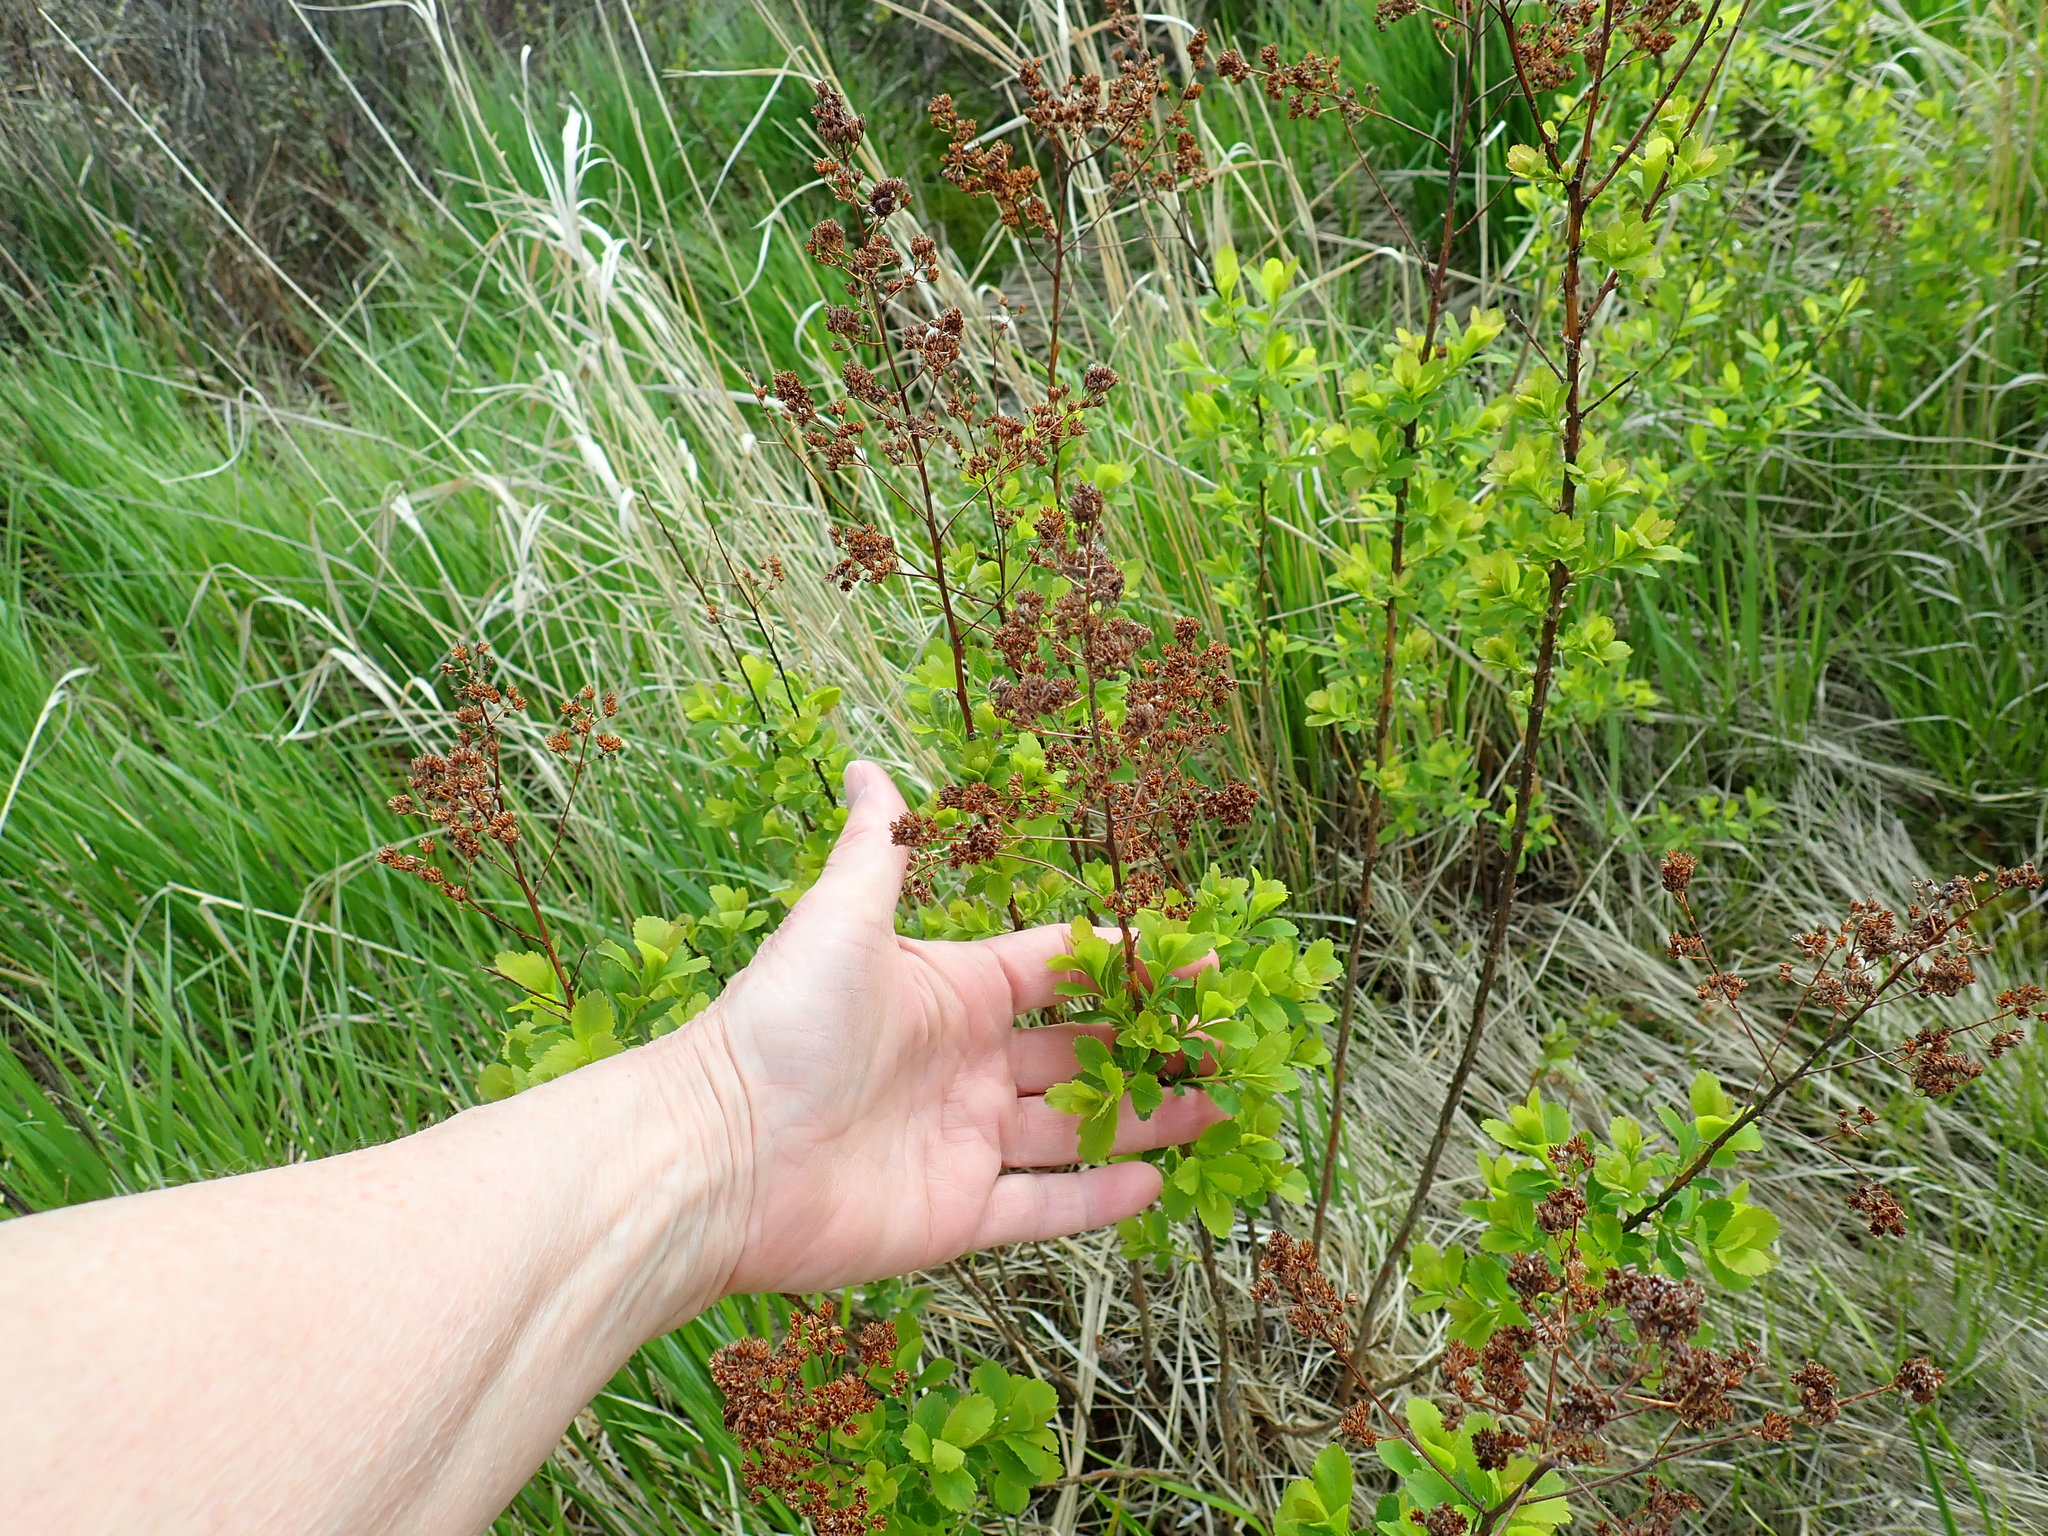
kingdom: Plantae
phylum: Tracheophyta
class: Magnoliopsida
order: Rosales
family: Rosaceae
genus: Spiraea
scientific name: Spiraea alba
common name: Pale bridewort
